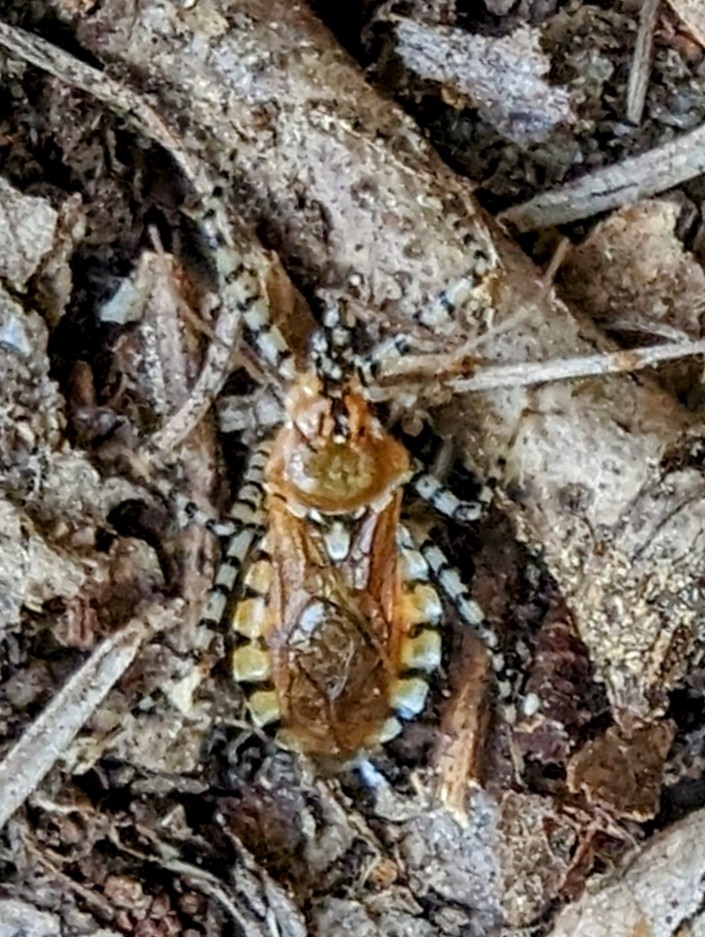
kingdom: Animalia
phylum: Arthropoda
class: Insecta
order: Hemiptera
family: Reduviidae
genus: Pselliopus
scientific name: Pselliopus cinctus
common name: Ringed assassin bug
